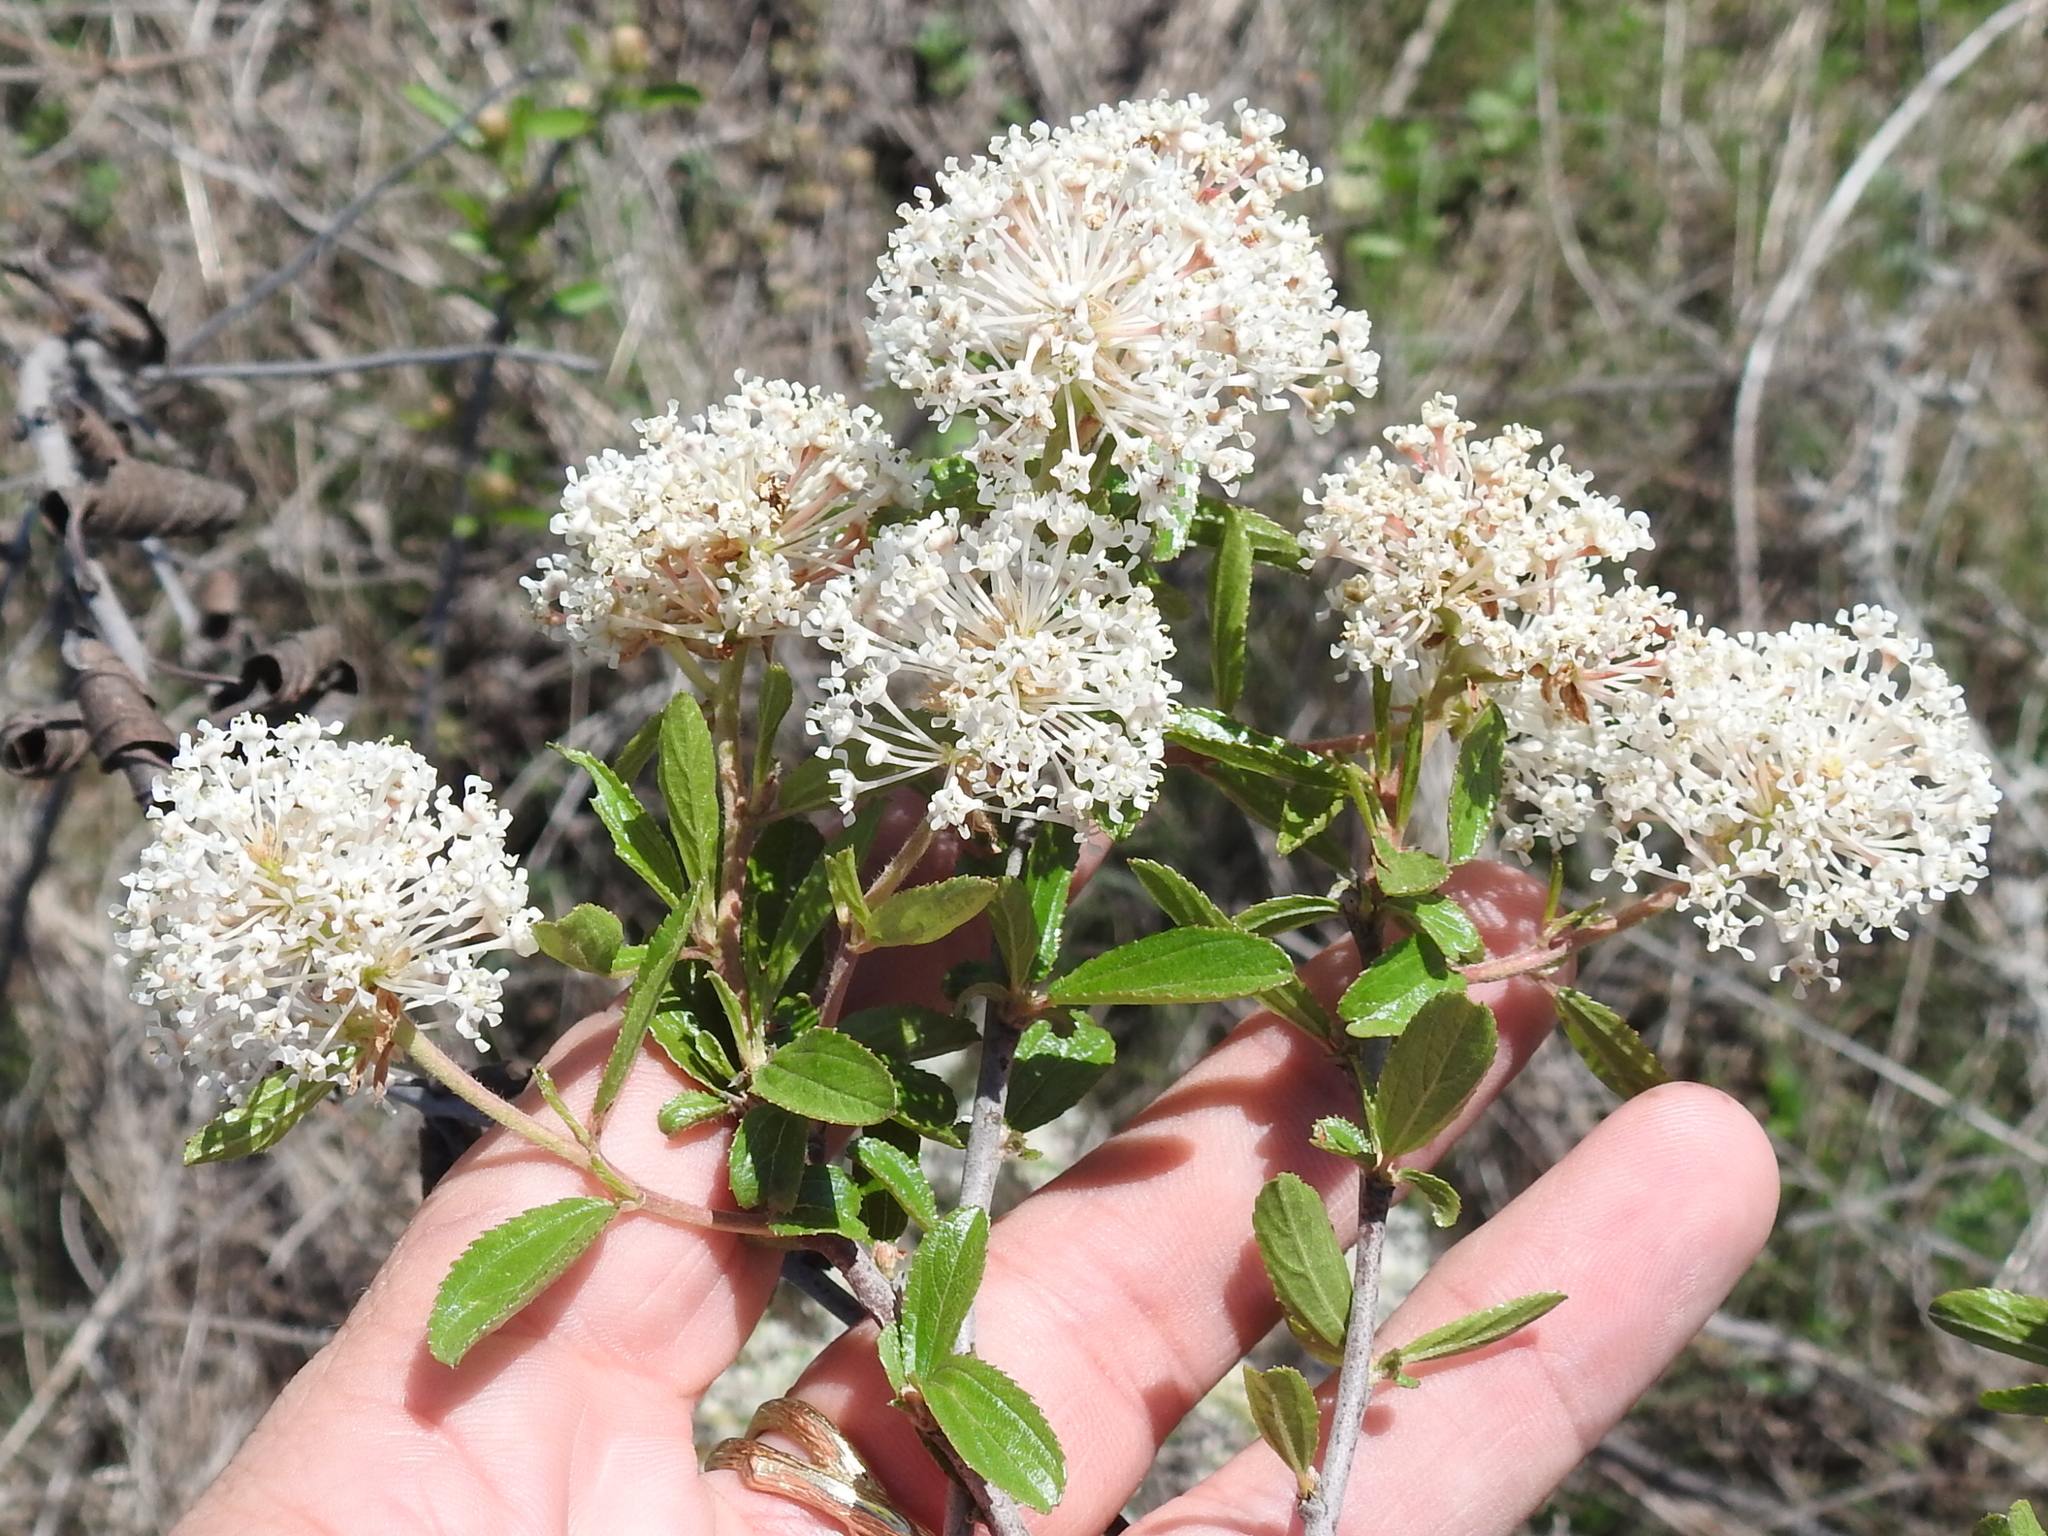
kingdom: Plantae
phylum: Tracheophyta
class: Magnoliopsida
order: Rosales
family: Rhamnaceae
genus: Ceanothus
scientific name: Ceanothus herbaceus
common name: Inland ceanothus
